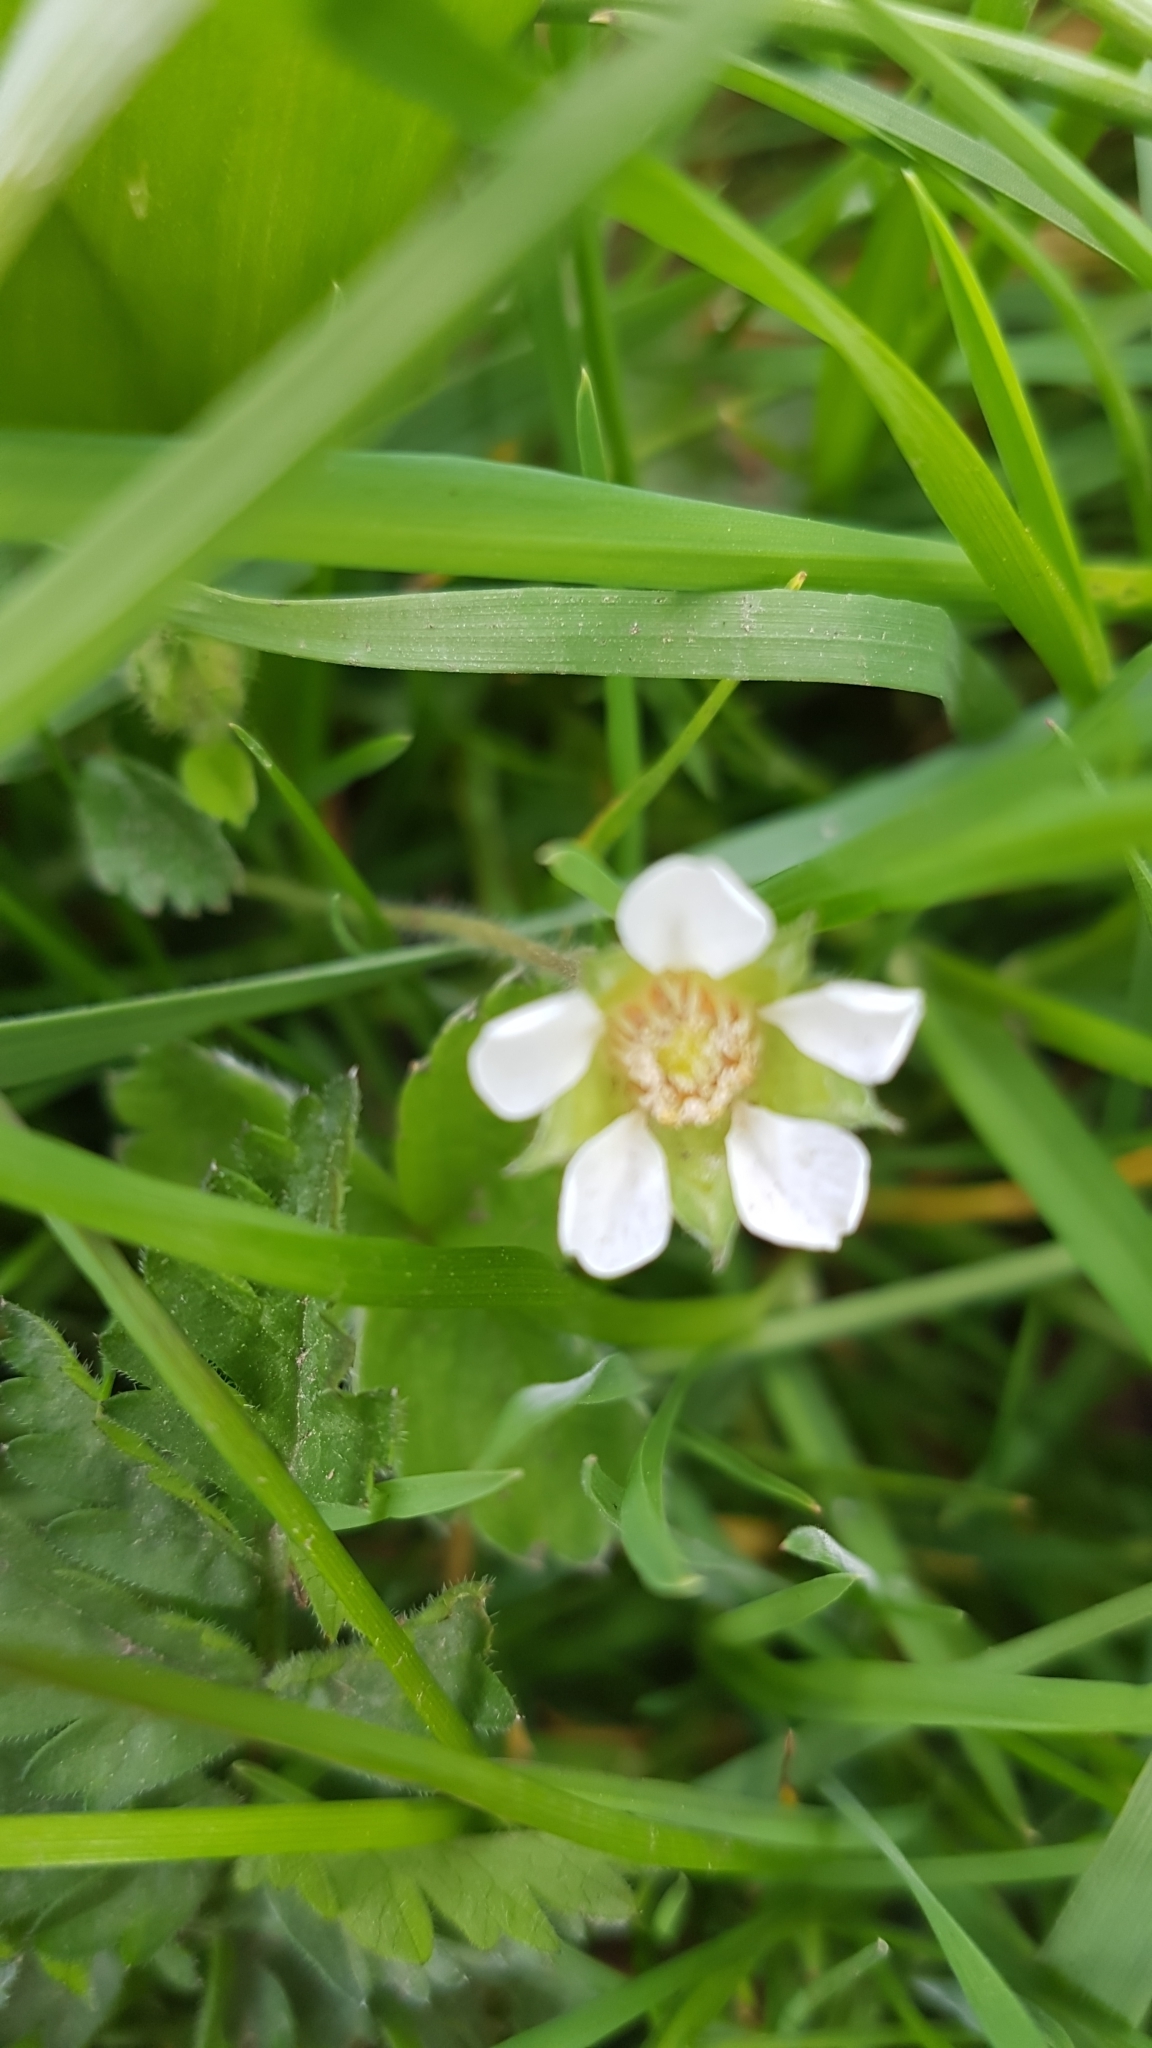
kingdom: Plantae
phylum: Tracheophyta
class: Magnoliopsida
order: Rosales
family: Rosaceae
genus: Potentilla
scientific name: Potentilla sterilis
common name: Barren strawberry
